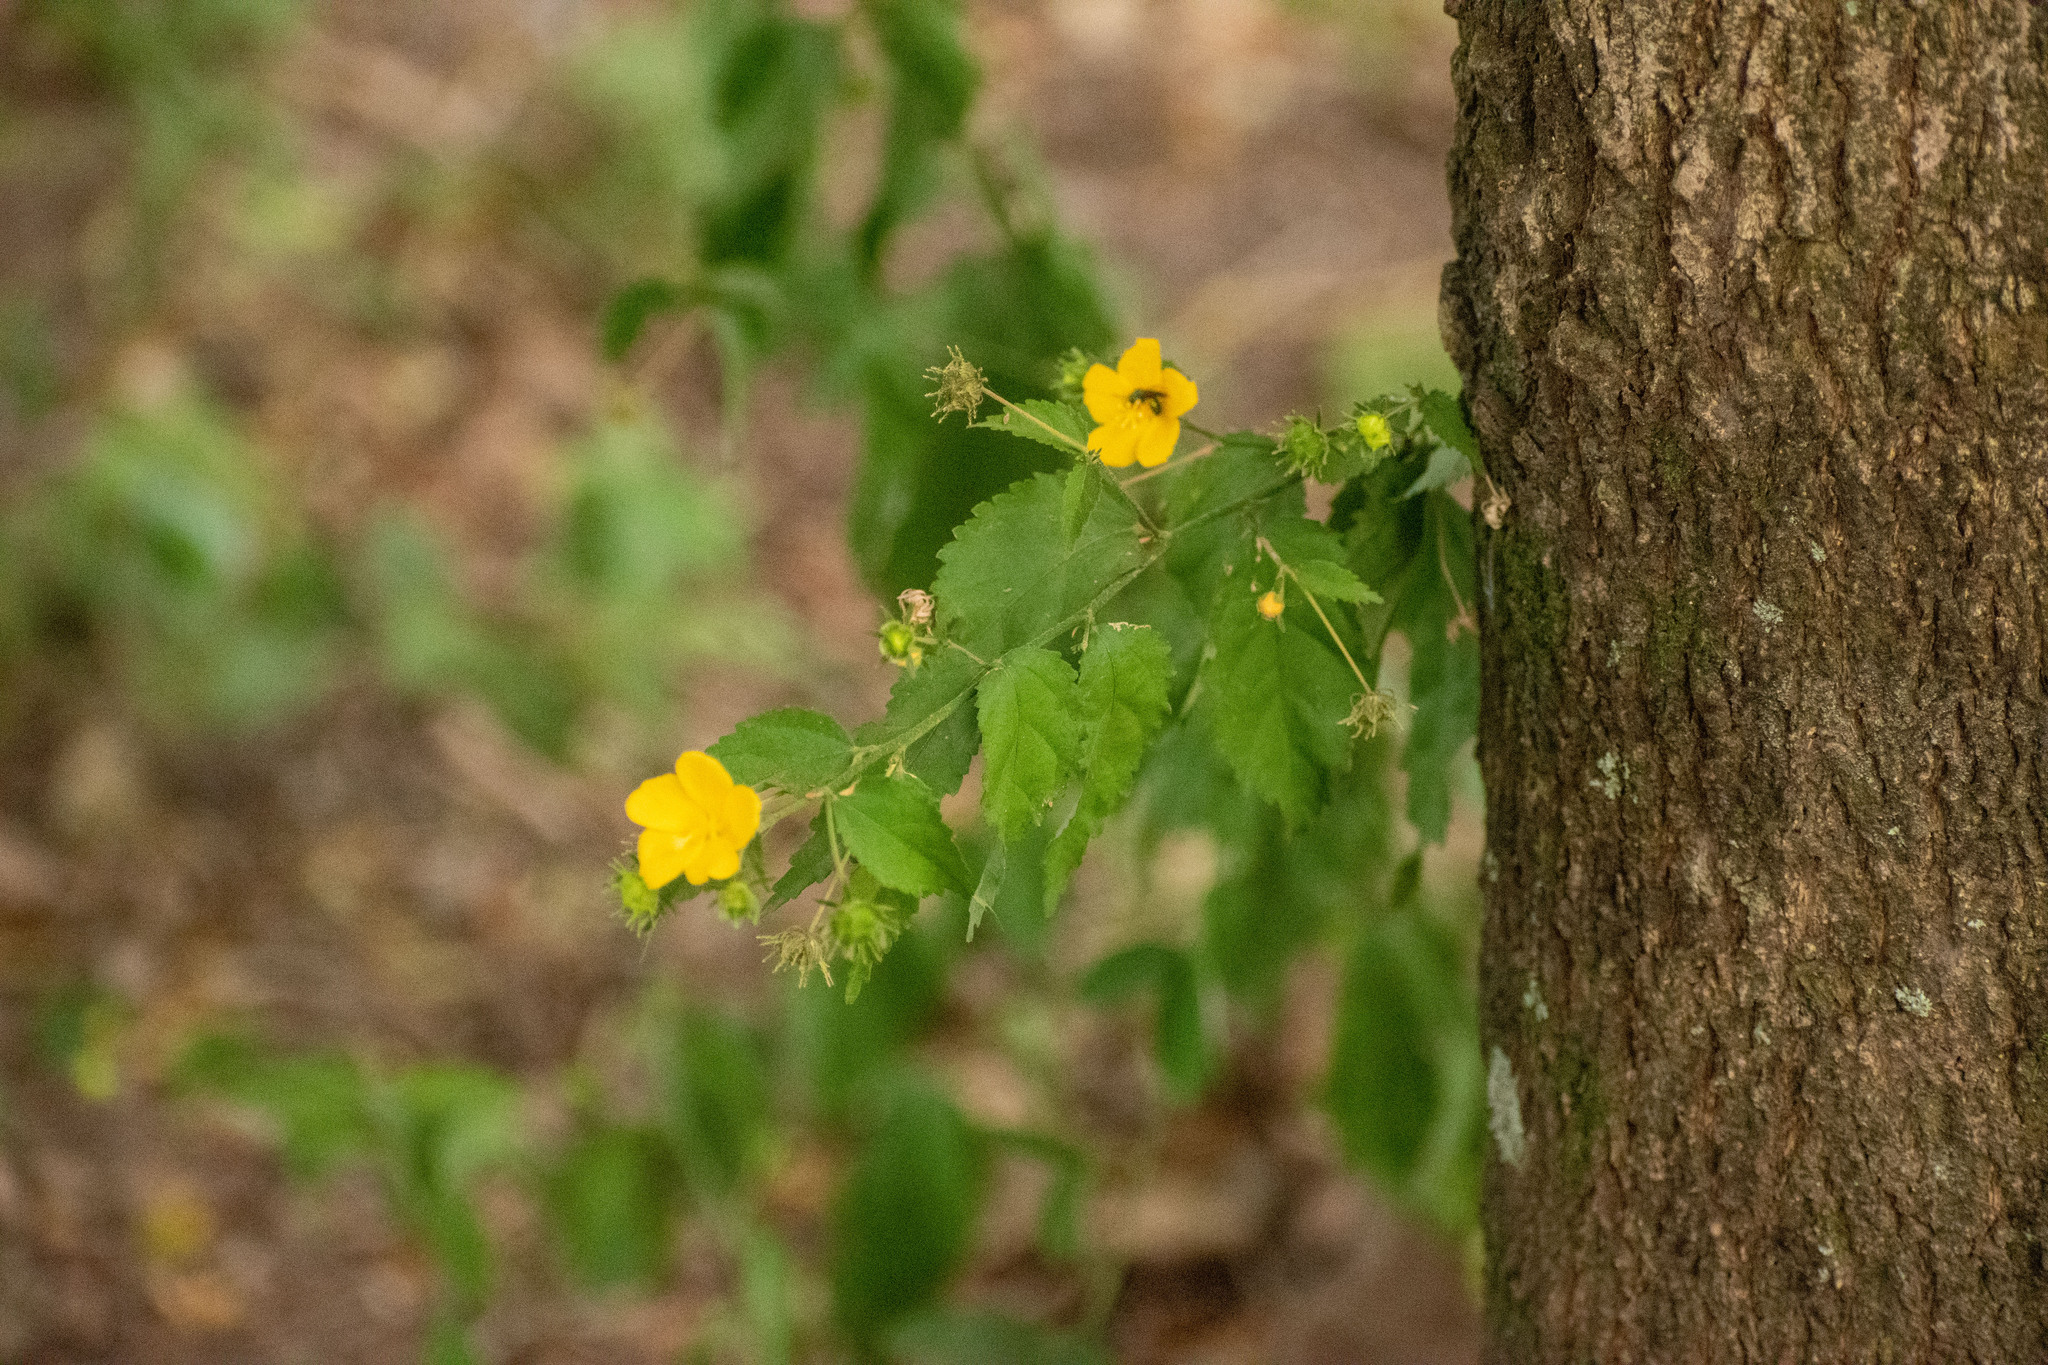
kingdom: Plantae
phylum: Tracheophyta
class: Magnoliopsida
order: Malvales
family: Malvaceae
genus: Pavonia
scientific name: Pavonia sepium
